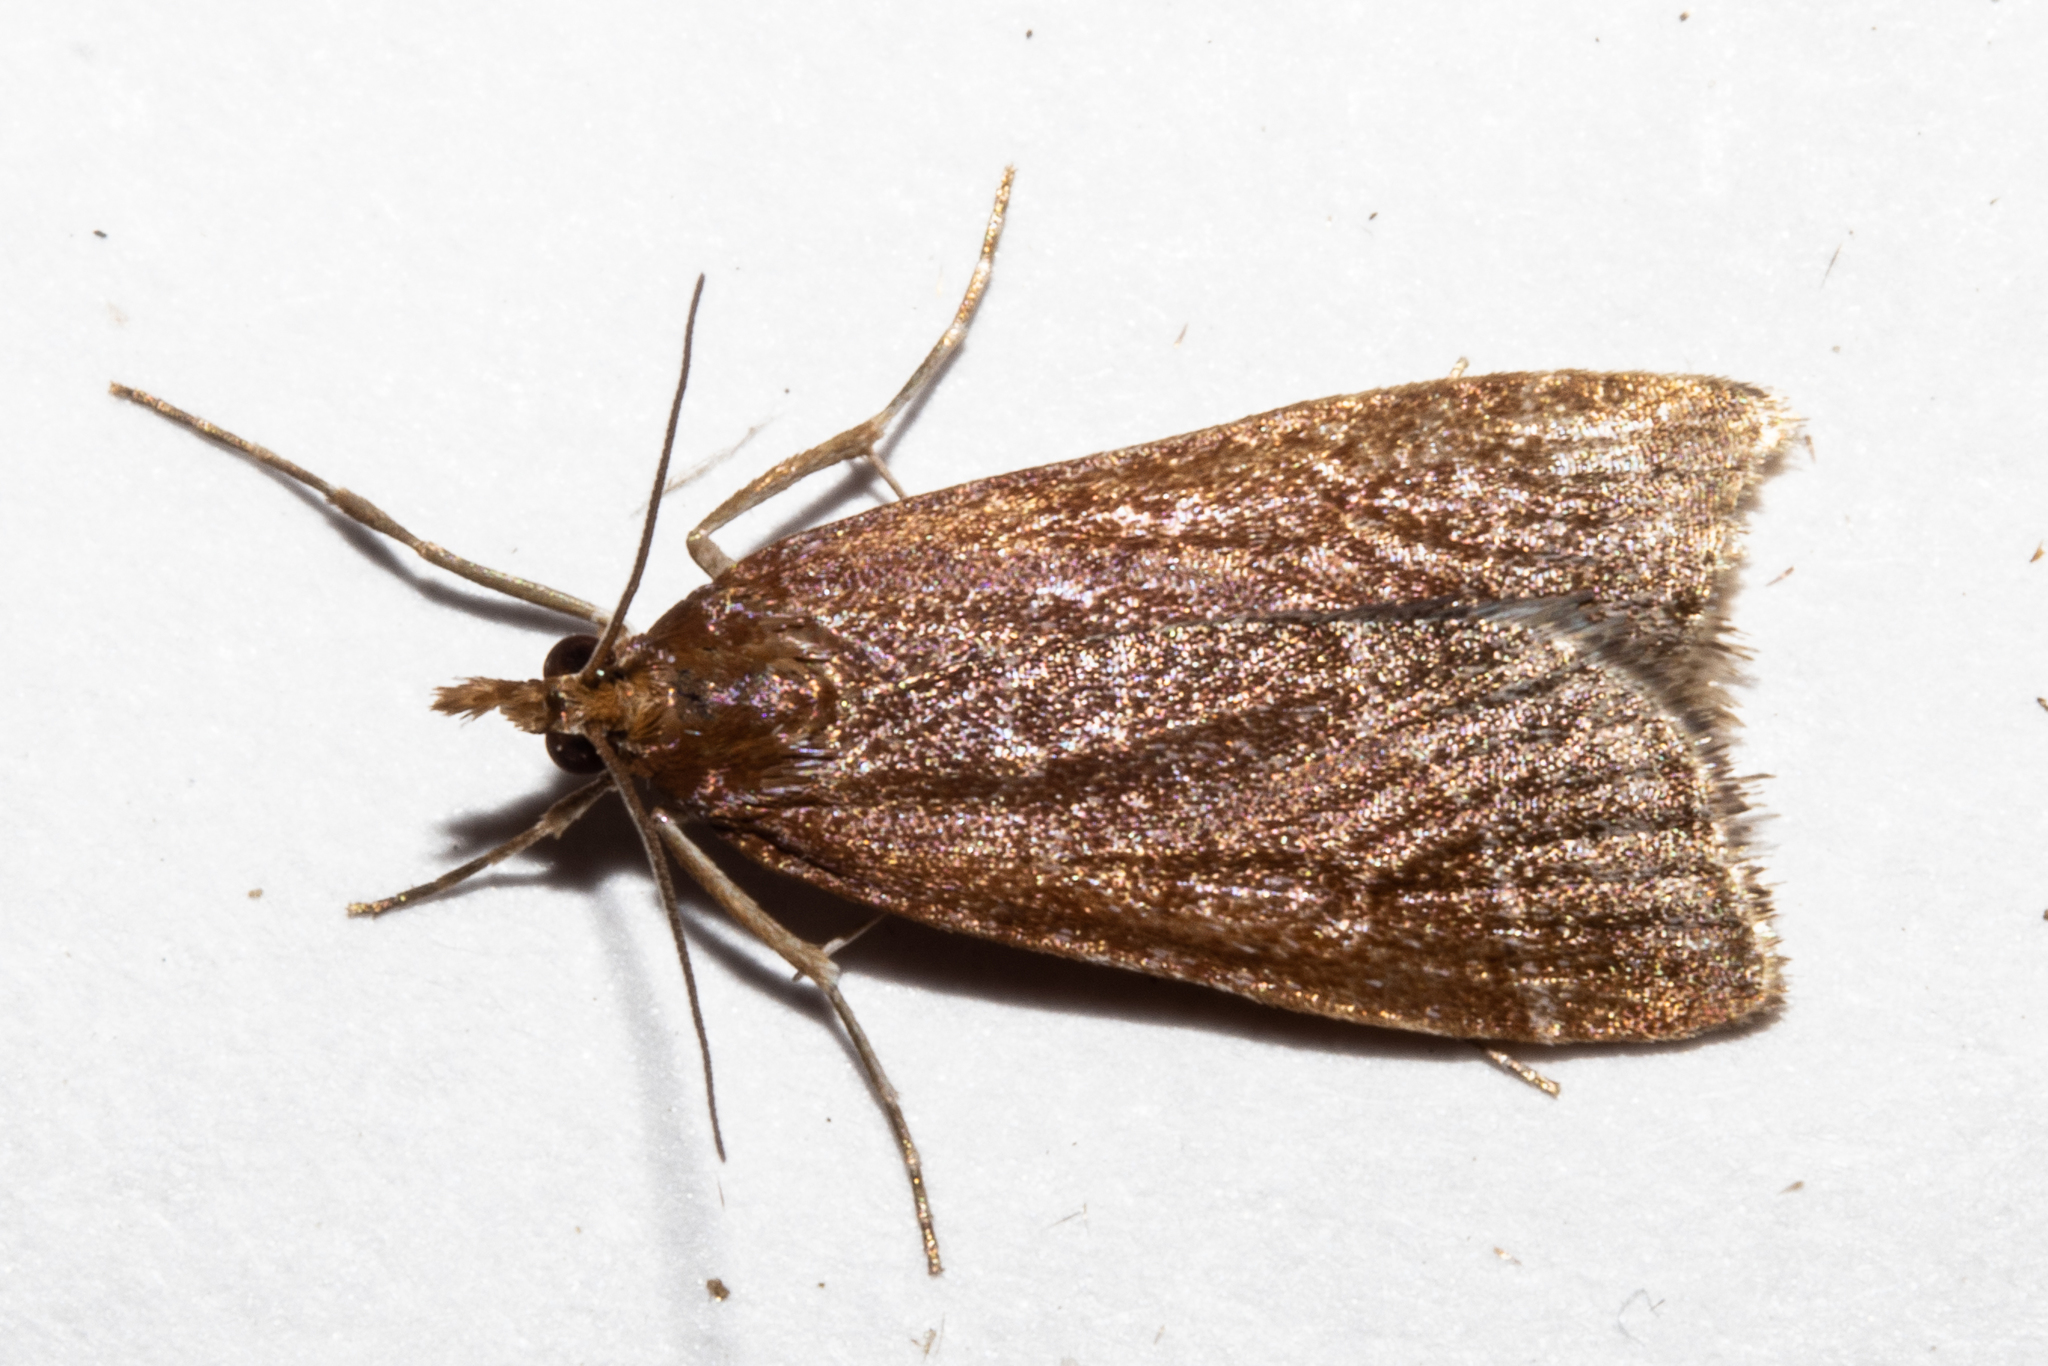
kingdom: Animalia
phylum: Arthropoda
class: Insecta
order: Lepidoptera
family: Crambidae
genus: Eudonia
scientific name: Eudonia feredayi
